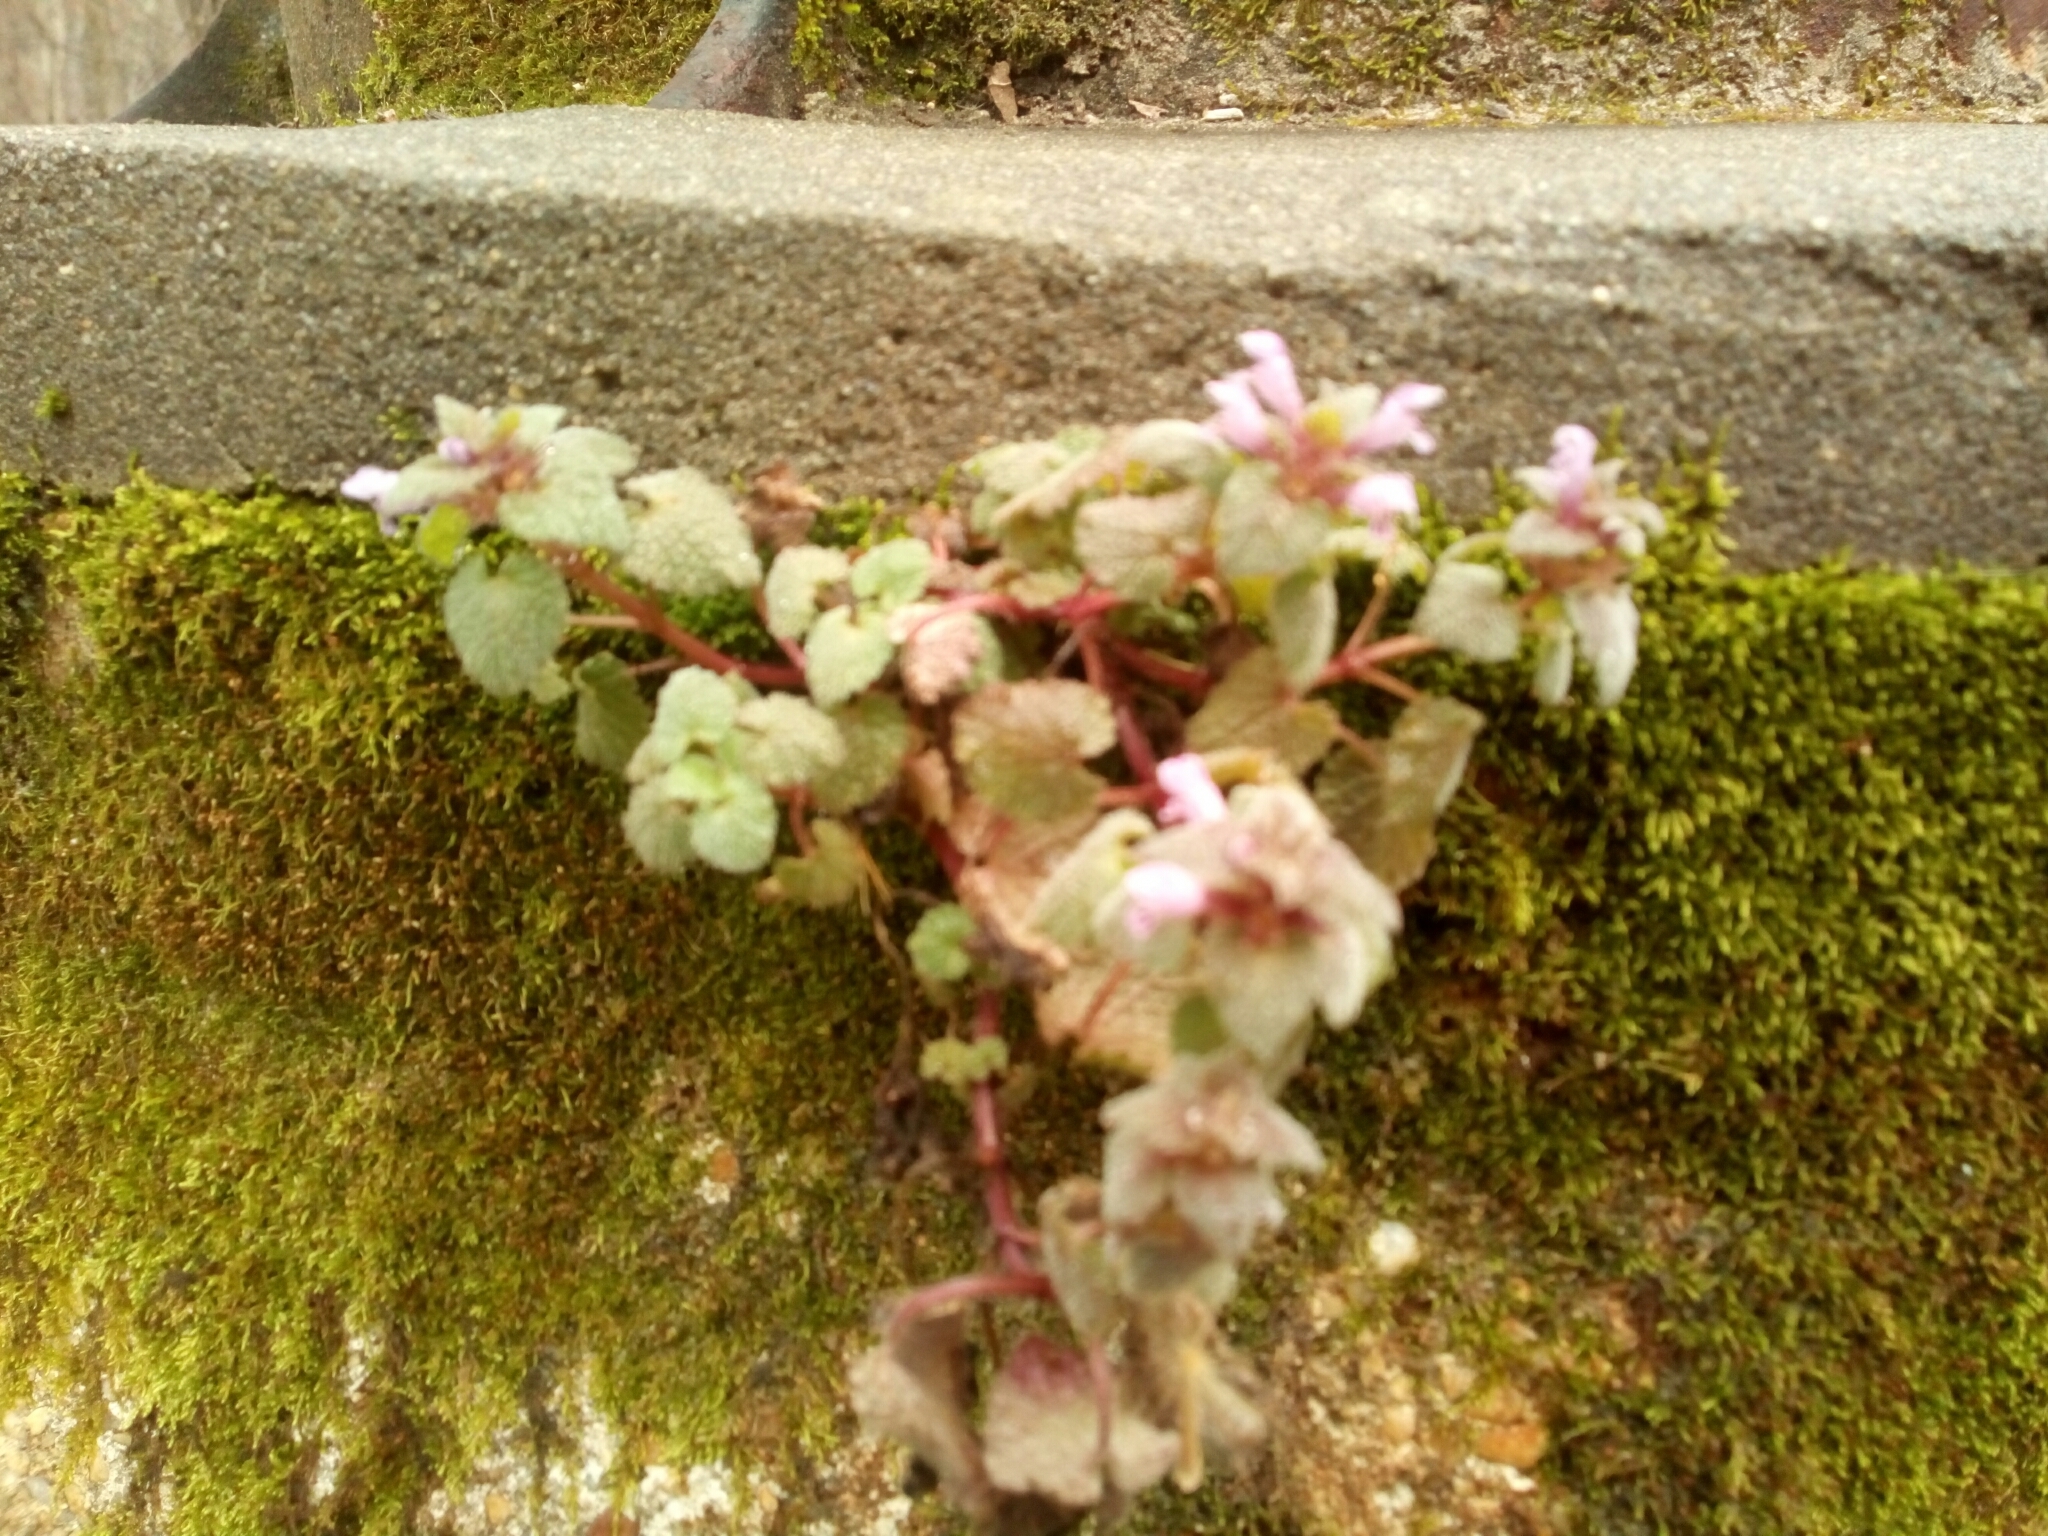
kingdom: Plantae
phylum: Tracheophyta
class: Magnoliopsida
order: Lamiales
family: Lamiaceae
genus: Lamium
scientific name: Lamium purpureum
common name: Red dead-nettle
